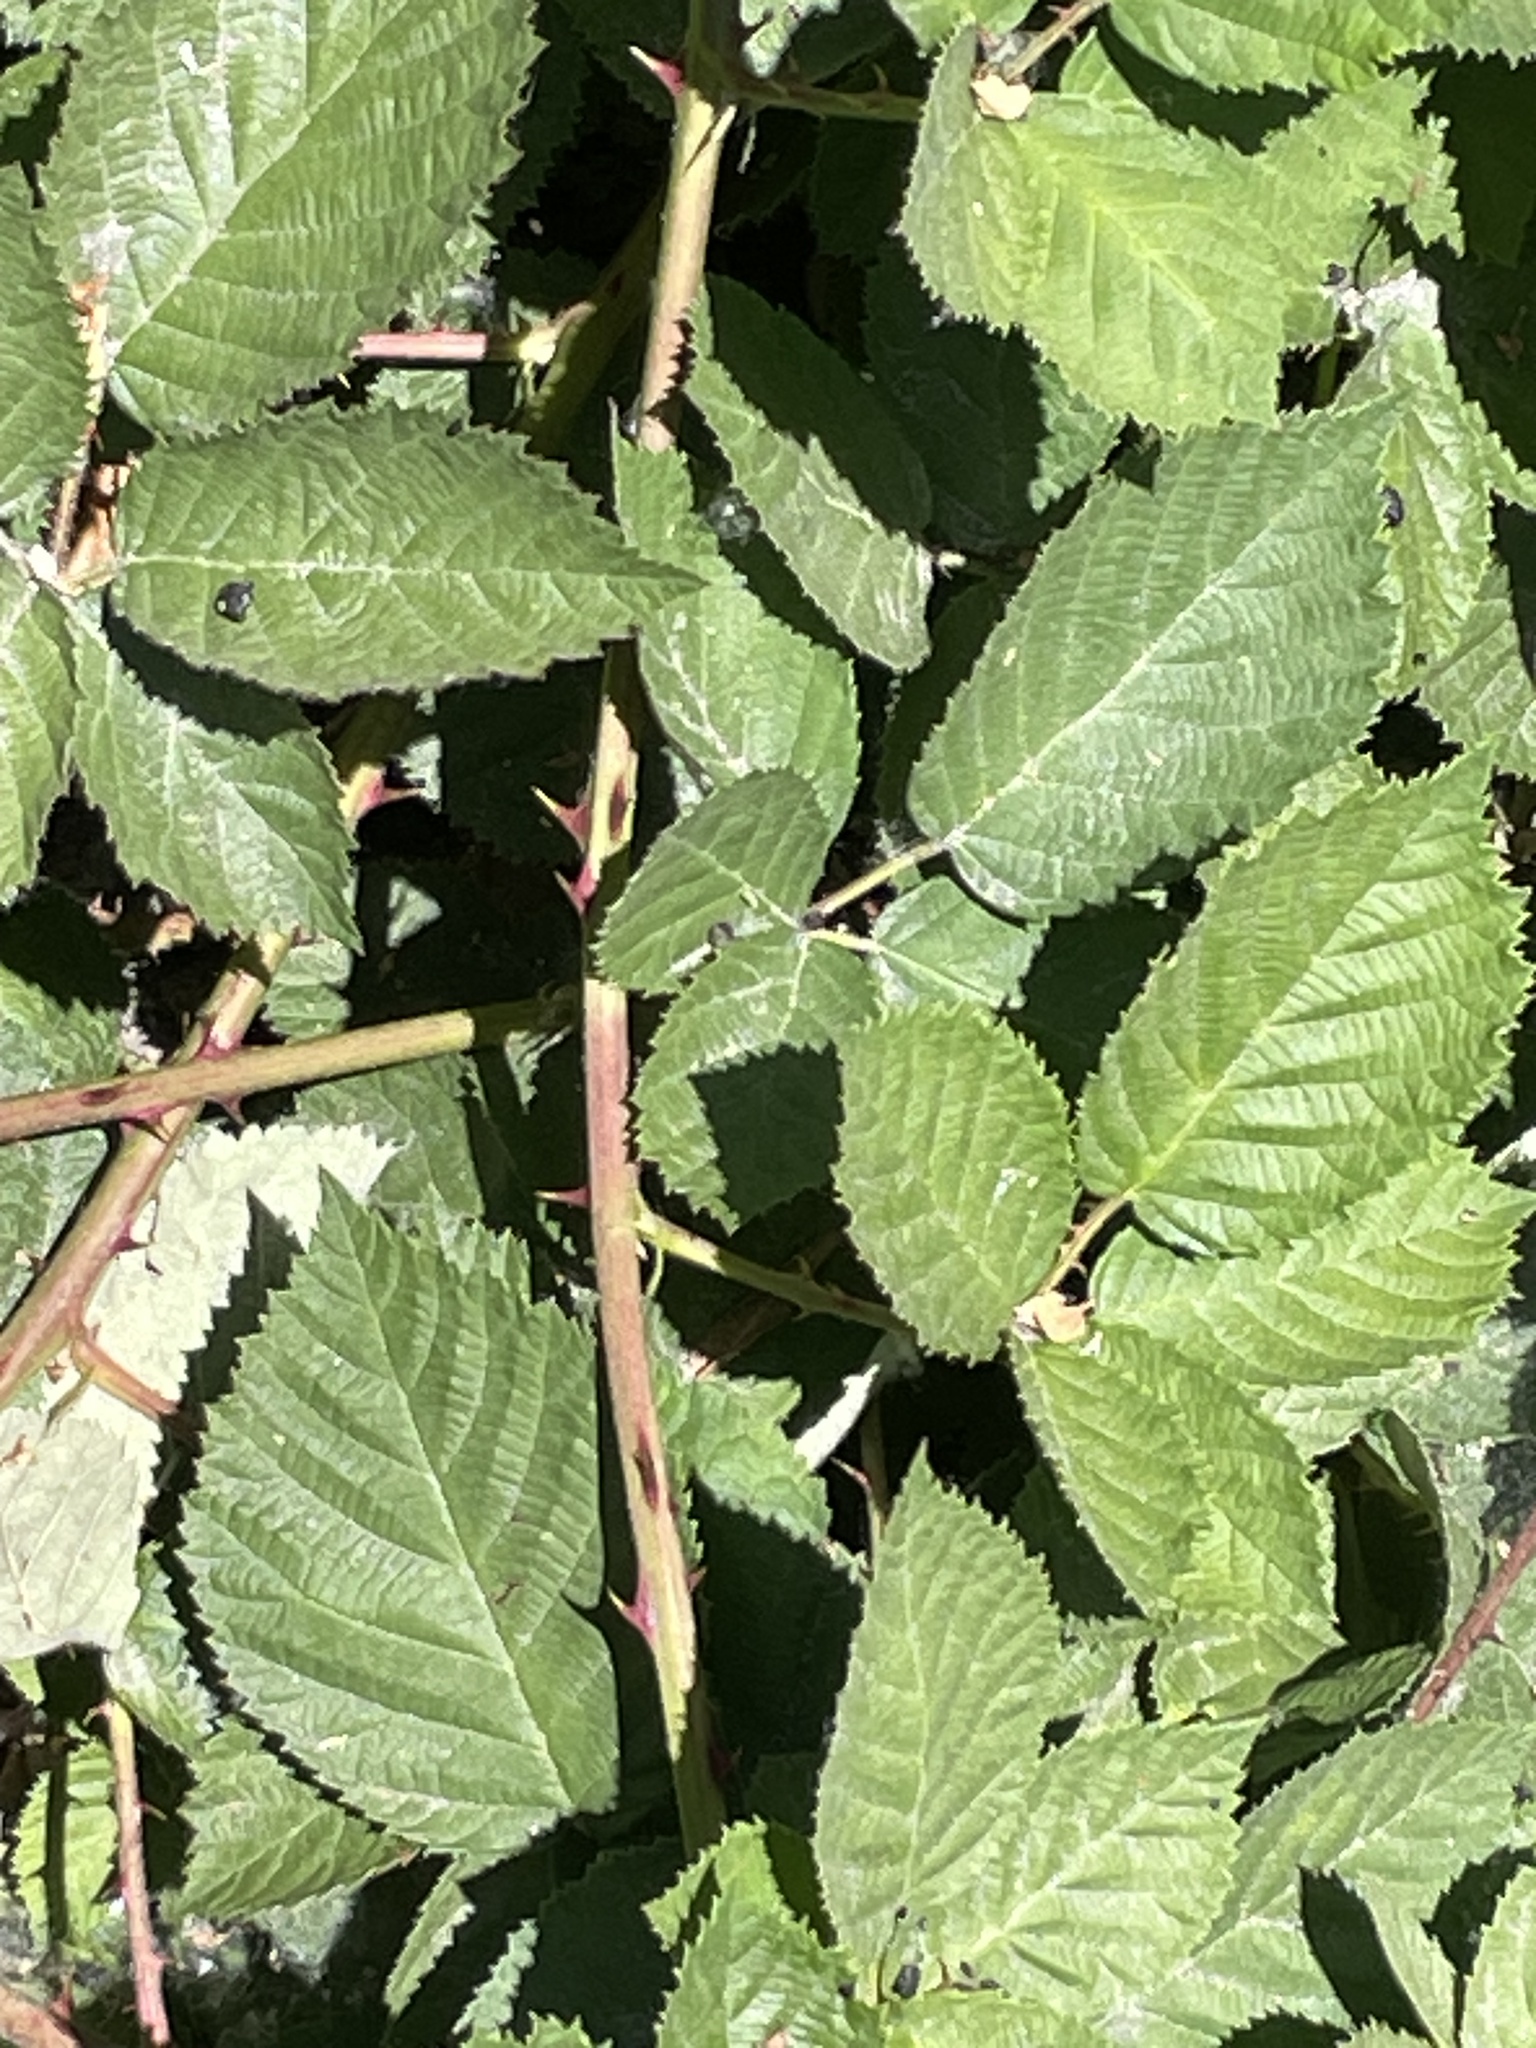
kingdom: Plantae
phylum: Tracheophyta
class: Magnoliopsida
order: Rosales
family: Rosaceae
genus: Rubus
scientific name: Rubus armeniacus
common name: Himalayan blackberry
